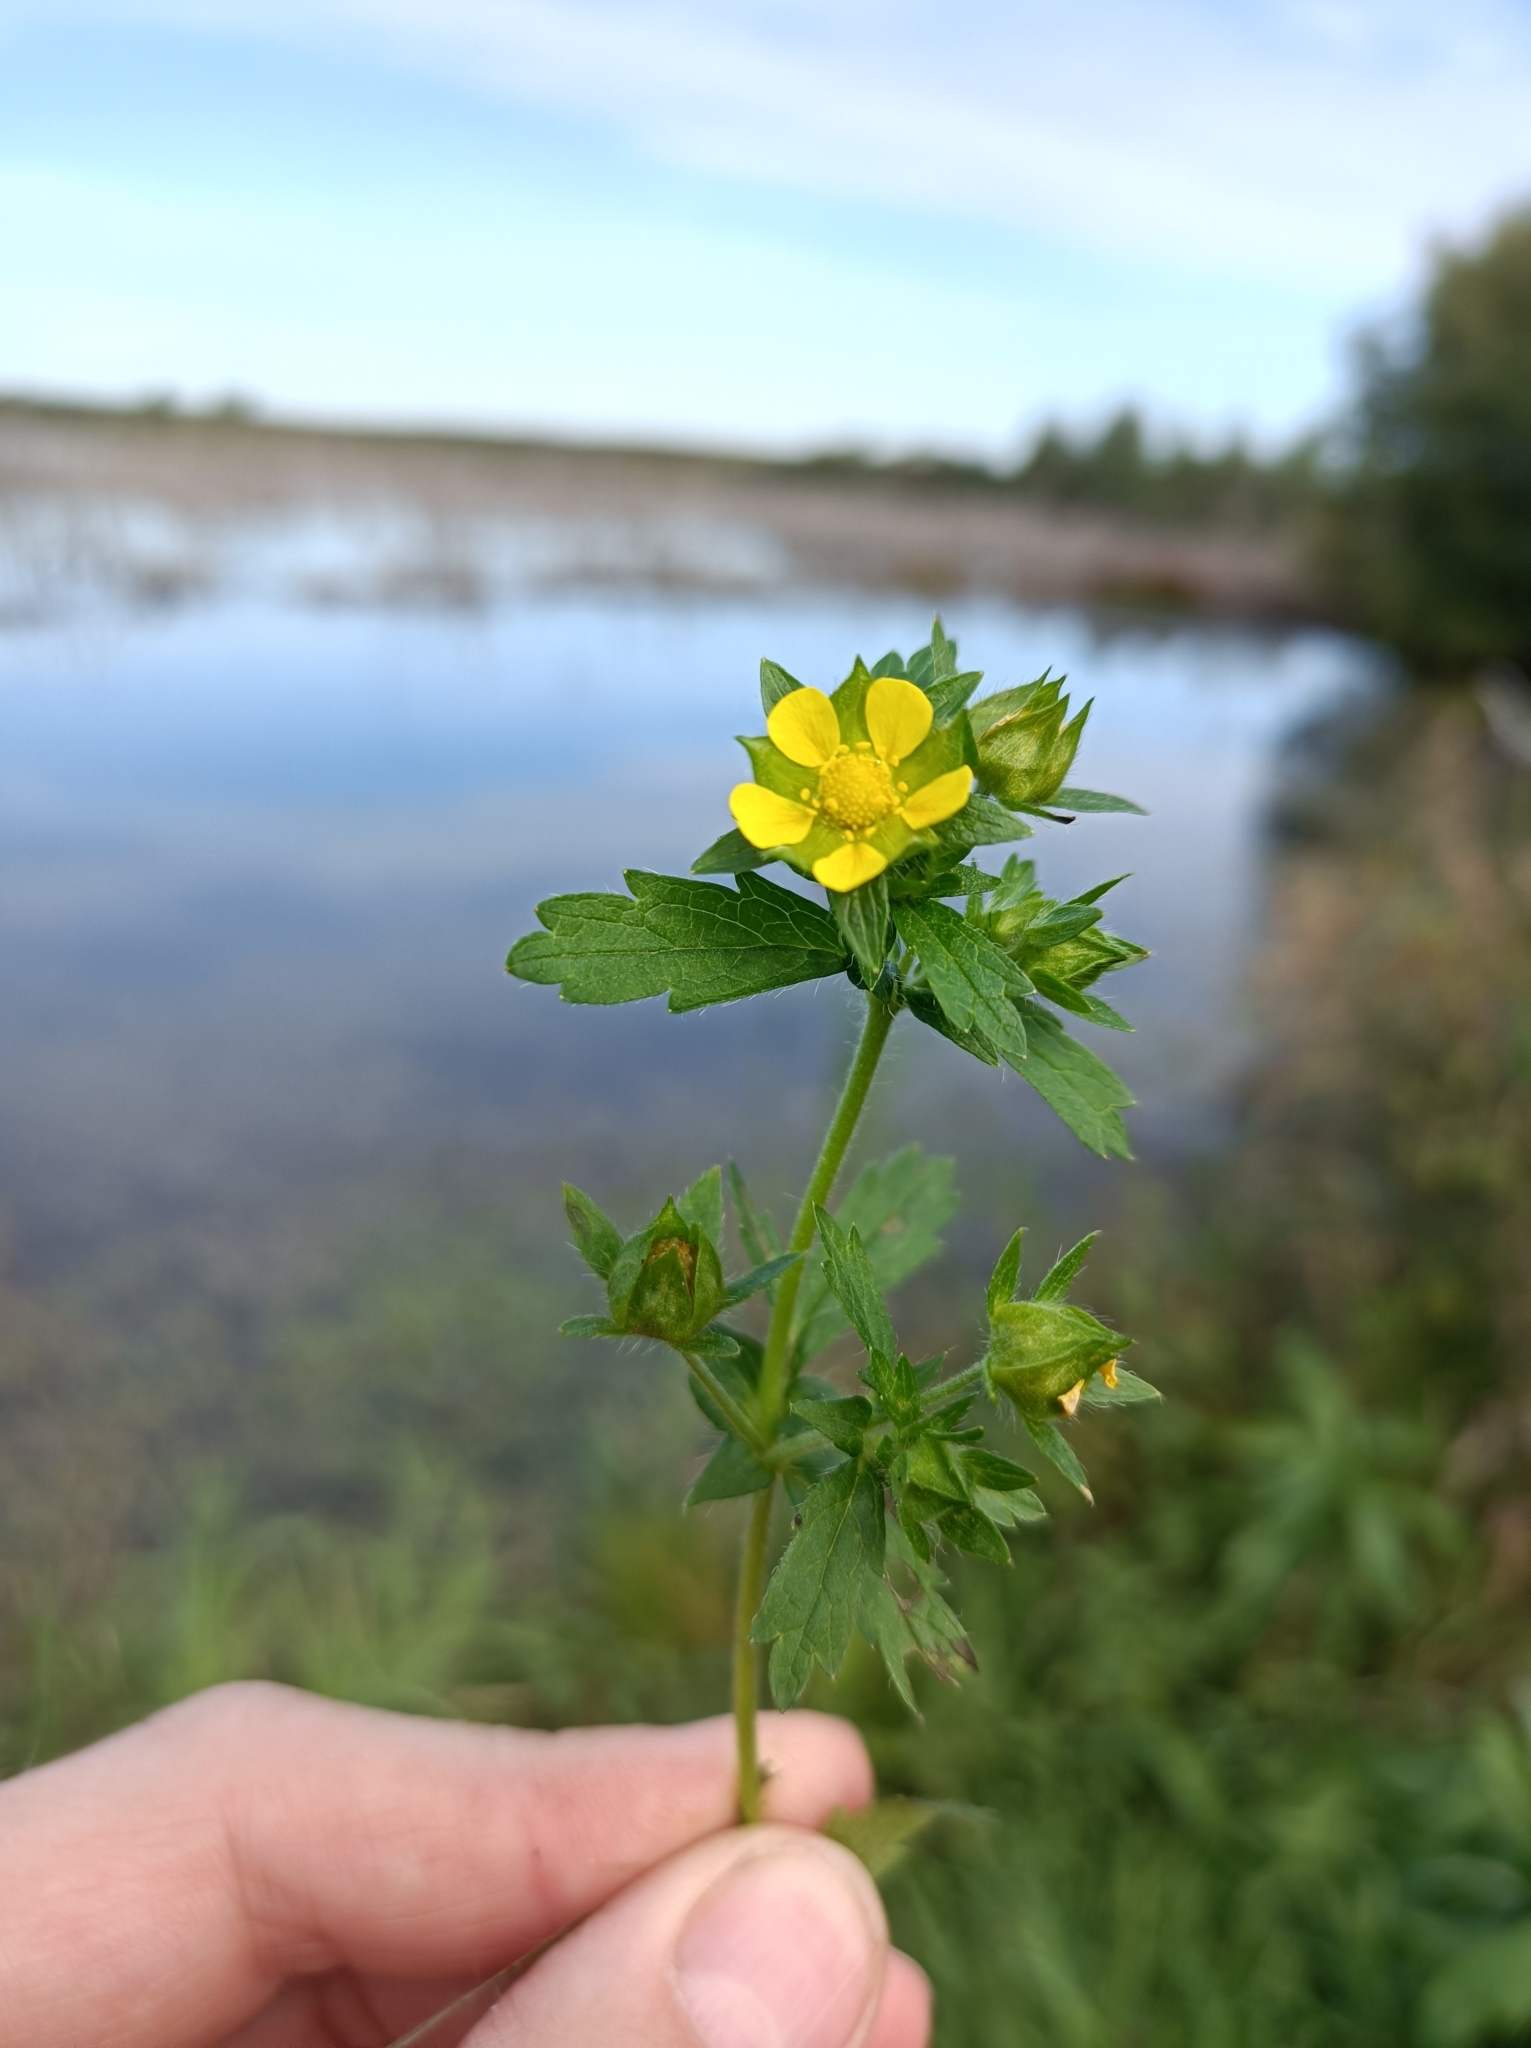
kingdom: Plantae
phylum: Tracheophyta
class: Magnoliopsida
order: Rosales
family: Rosaceae
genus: Potentilla
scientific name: Potentilla norvegica
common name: Ternate-leaved cinquefoil
